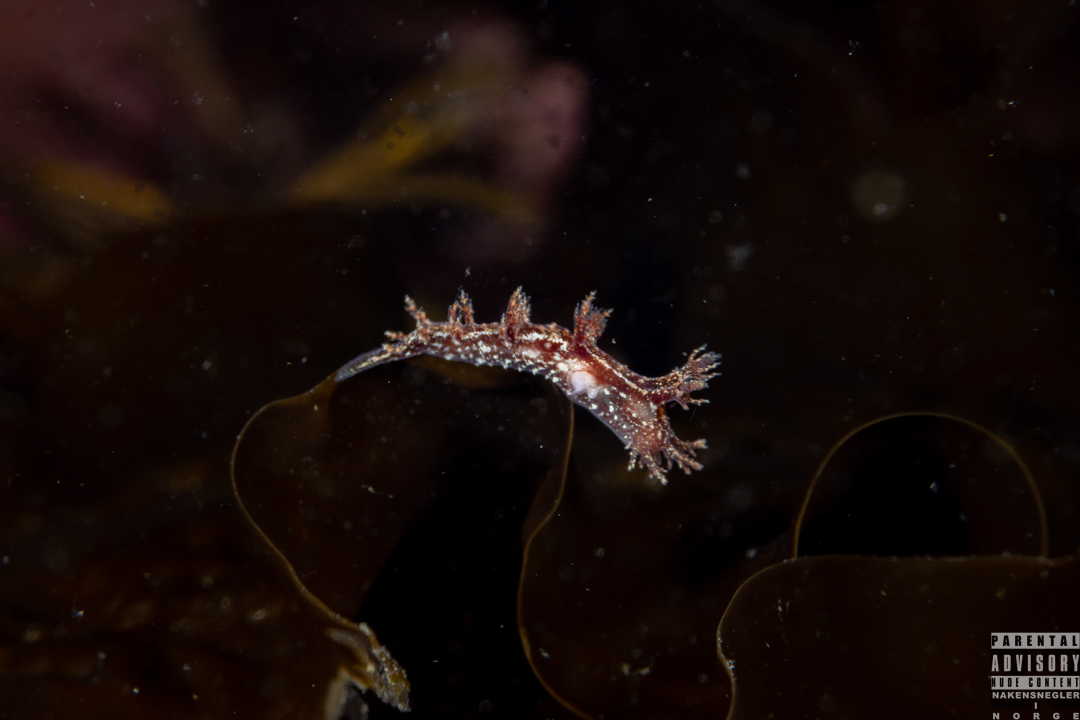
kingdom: Animalia
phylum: Mollusca
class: Gastropoda
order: Nudibranchia
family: Dendronotidae
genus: Dendronotus
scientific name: Dendronotus frondosus
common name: Bushy-backed nudibranch
